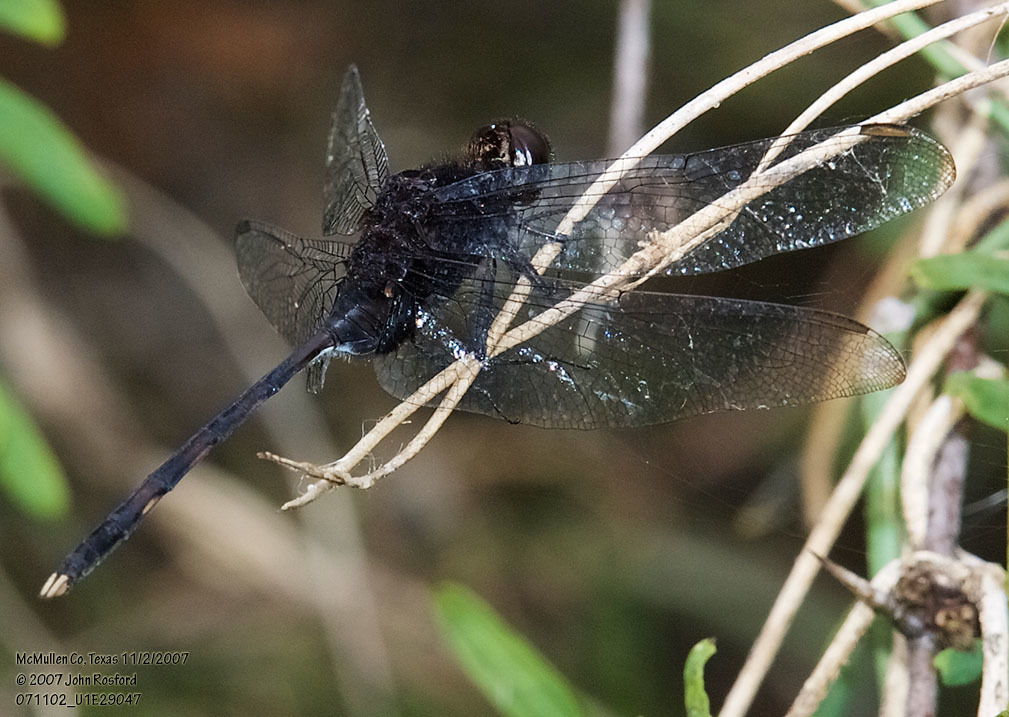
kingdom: Animalia
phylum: Arthropoda
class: Insecta
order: Odonata
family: Libellulidae
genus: Erythemis
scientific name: Erythemis plebeja
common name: Pin-tailed pondhawk
